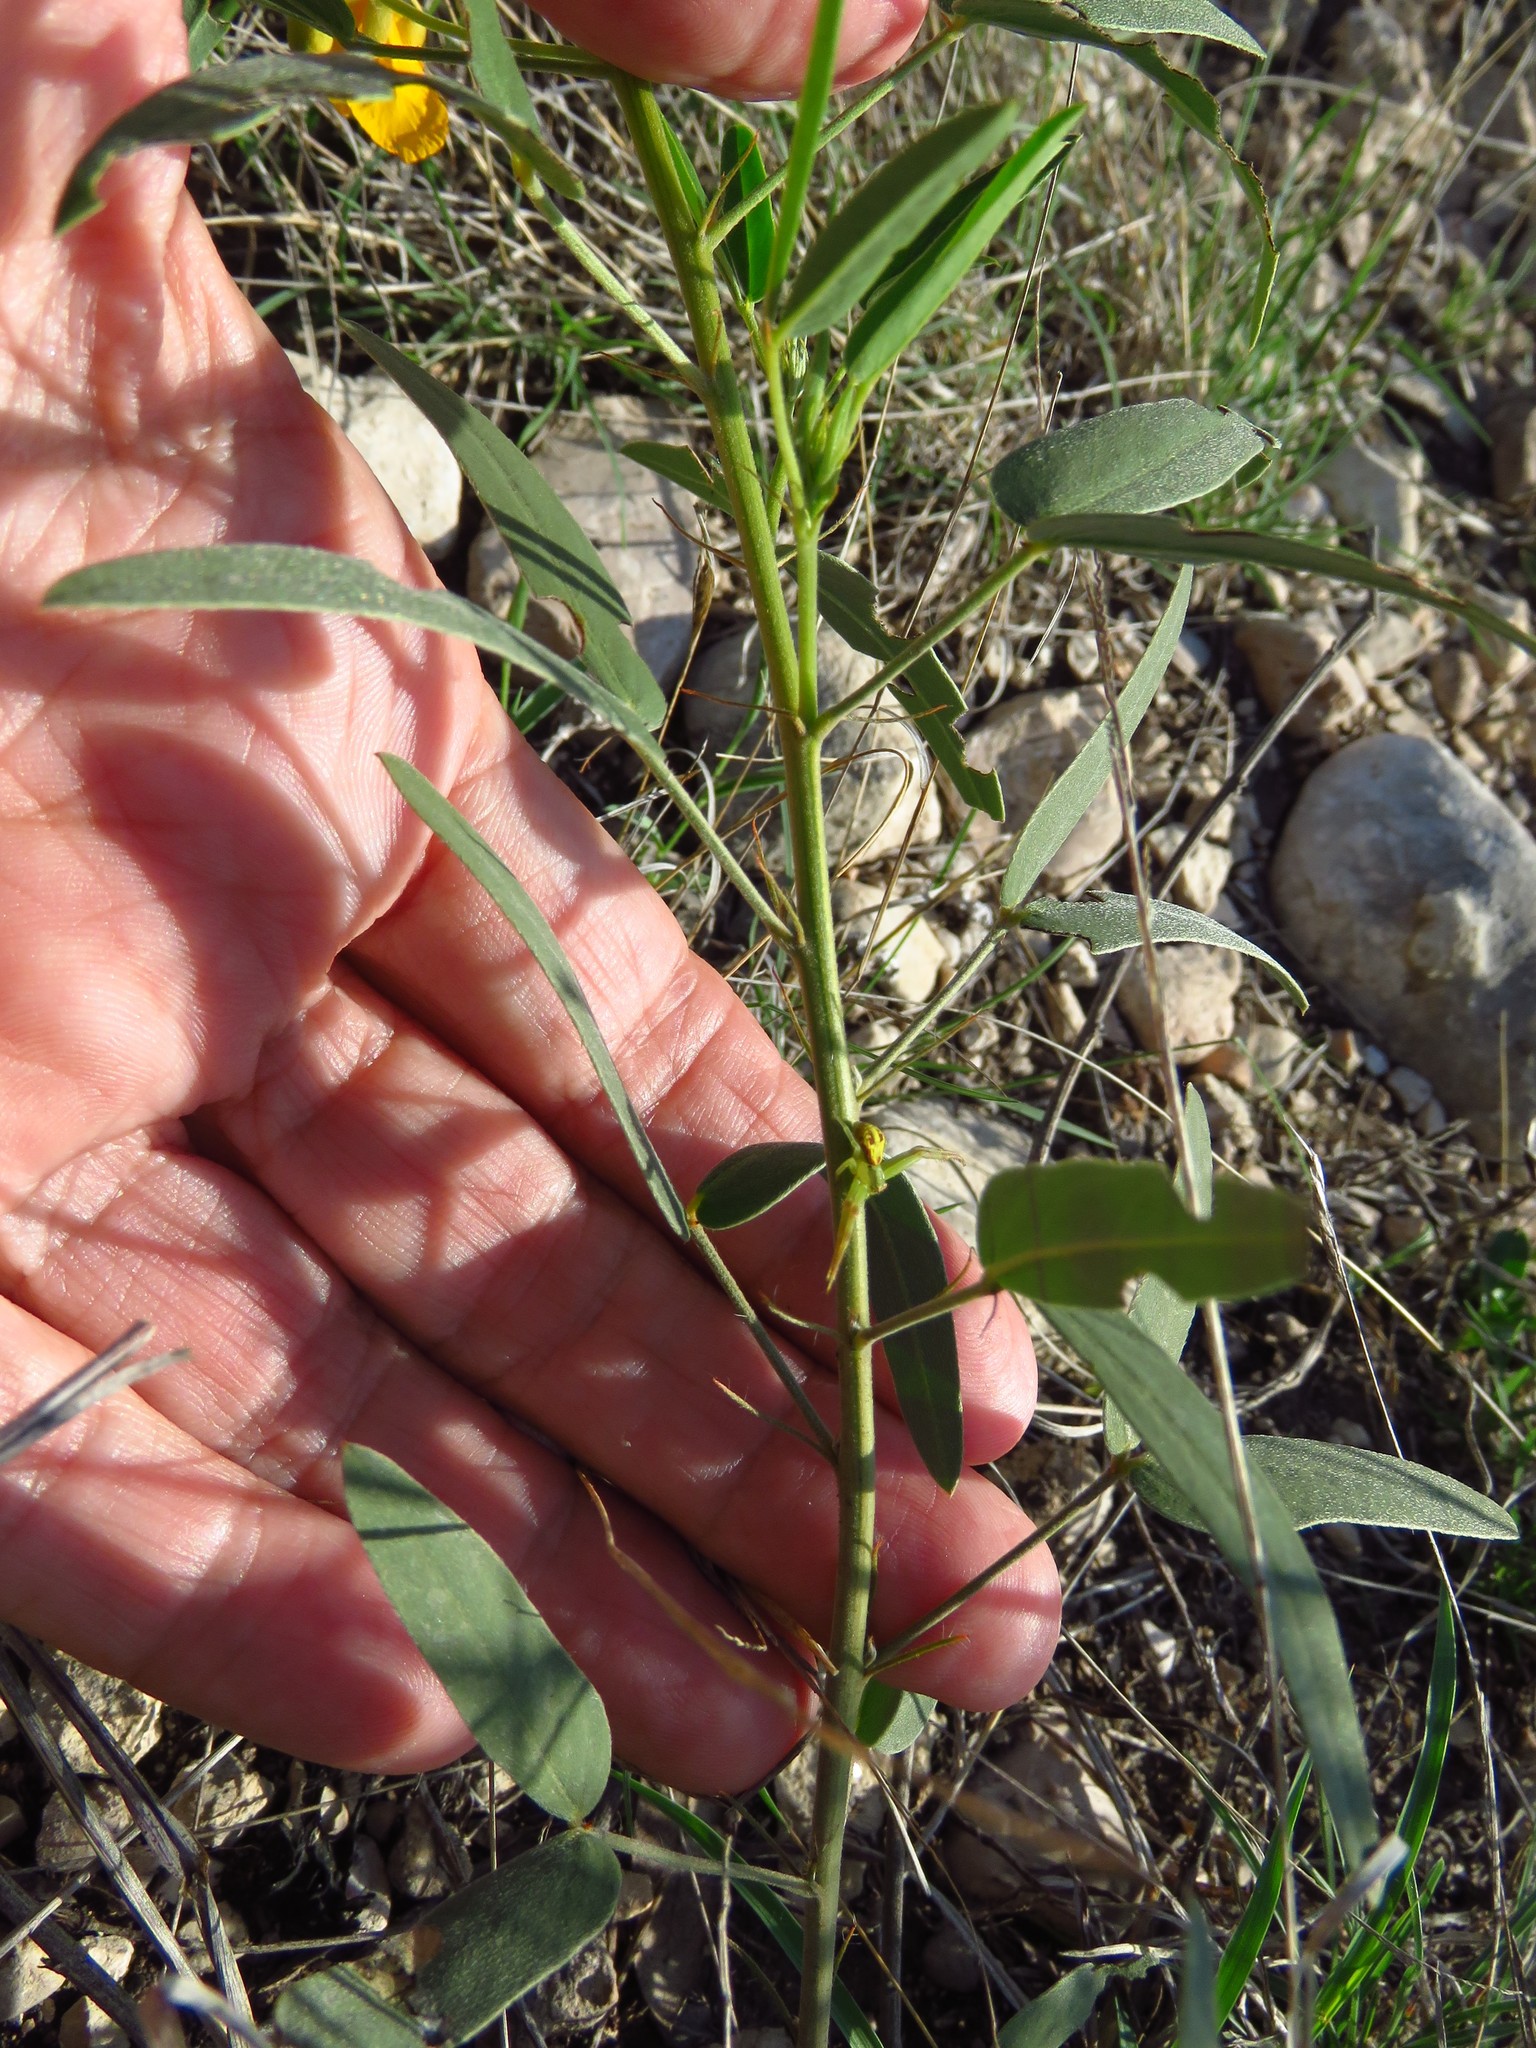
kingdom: Plantae
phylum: Tracheophyta
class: Magnoliopsida
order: Fabales
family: Fabaceae
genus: Senna
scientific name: Senna roemeriana
